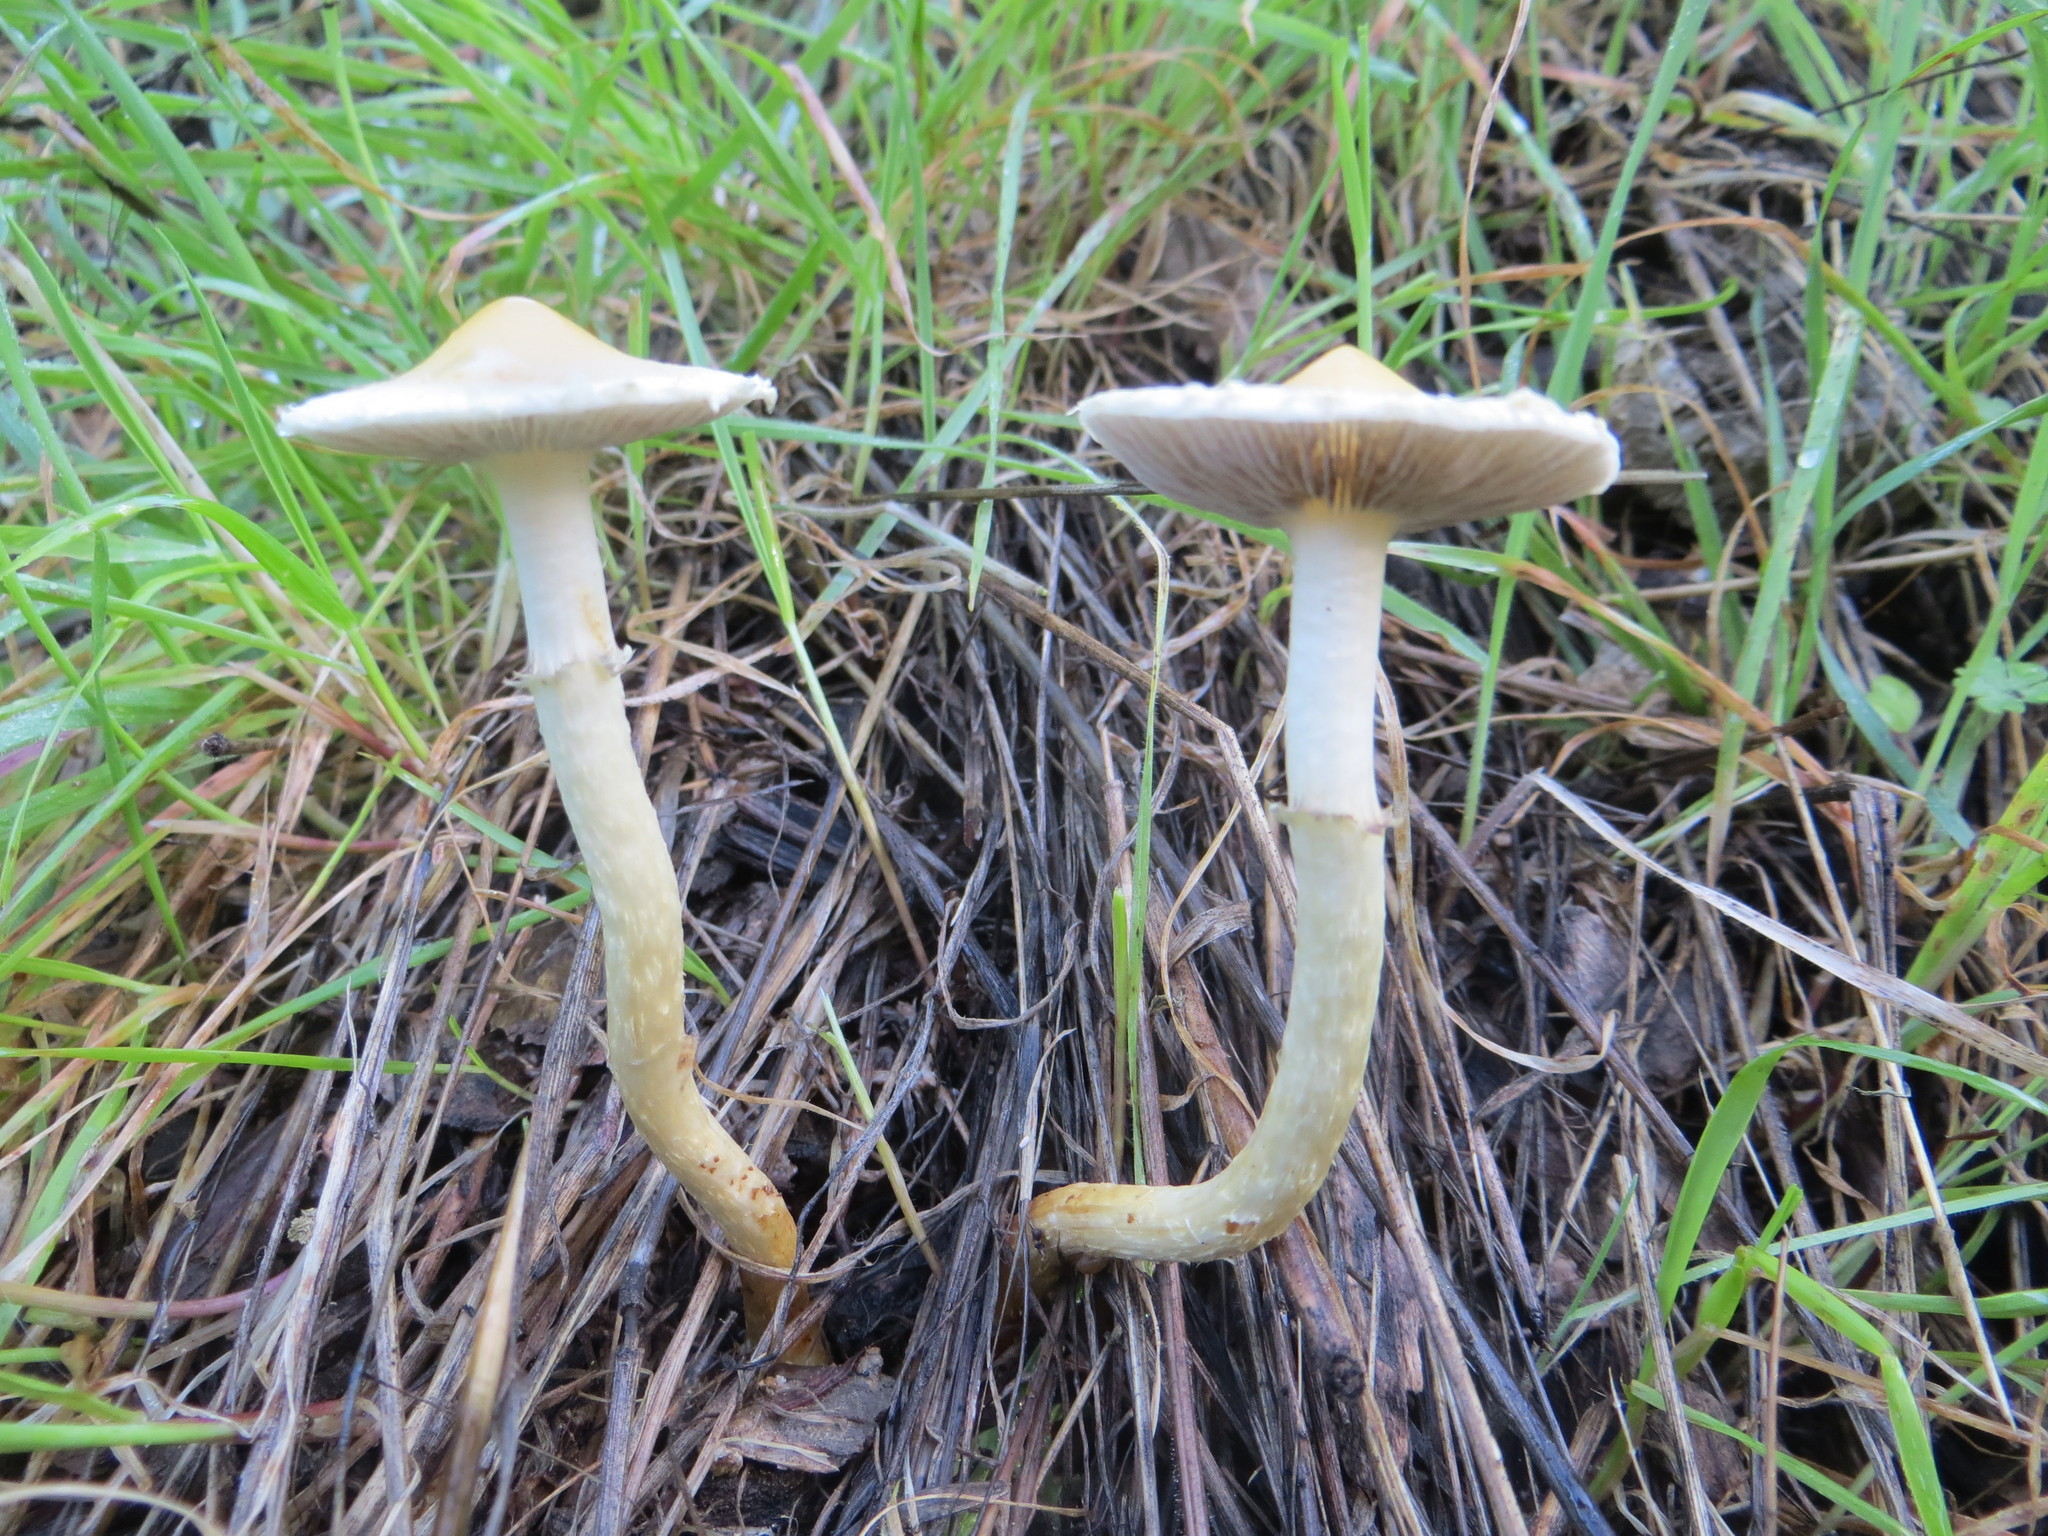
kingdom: Fungi
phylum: Basidiomycota
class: Agaricomycetes
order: Agaricales
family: Strophariaceae
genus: Leratiomyces
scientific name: Leratiomyces percevalii
